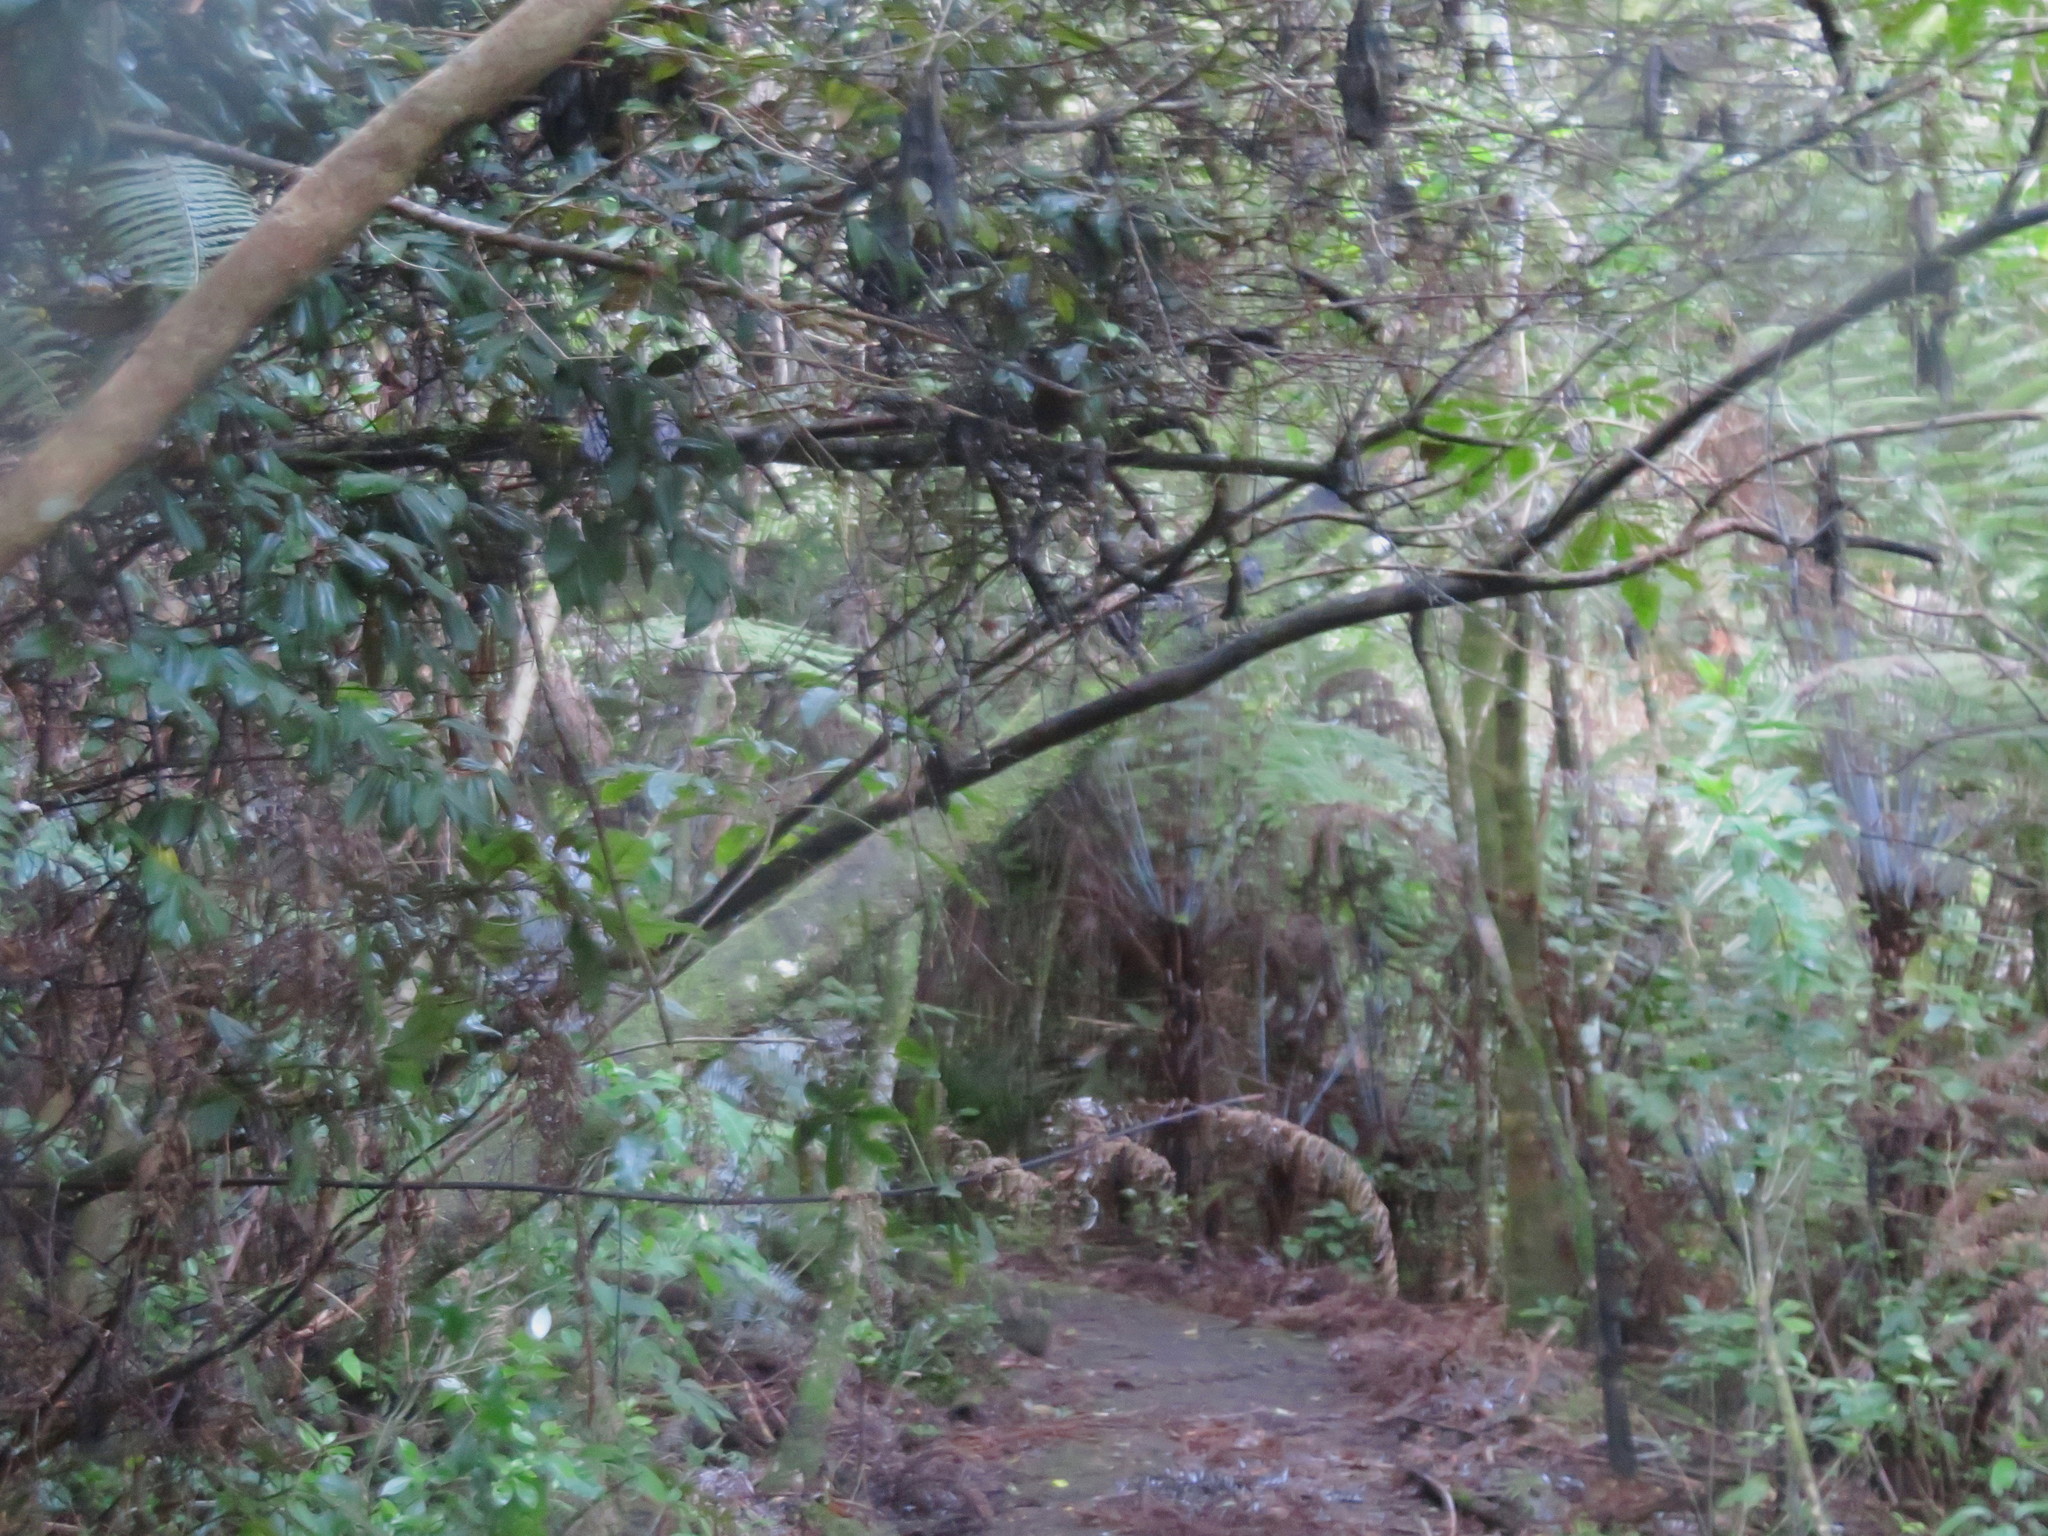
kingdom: Plantae
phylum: Tracheophyta
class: Magnoliopsida
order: Rosales
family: Elaeagnaceae
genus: Elaeagnus
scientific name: Elaeagnus reflexa
